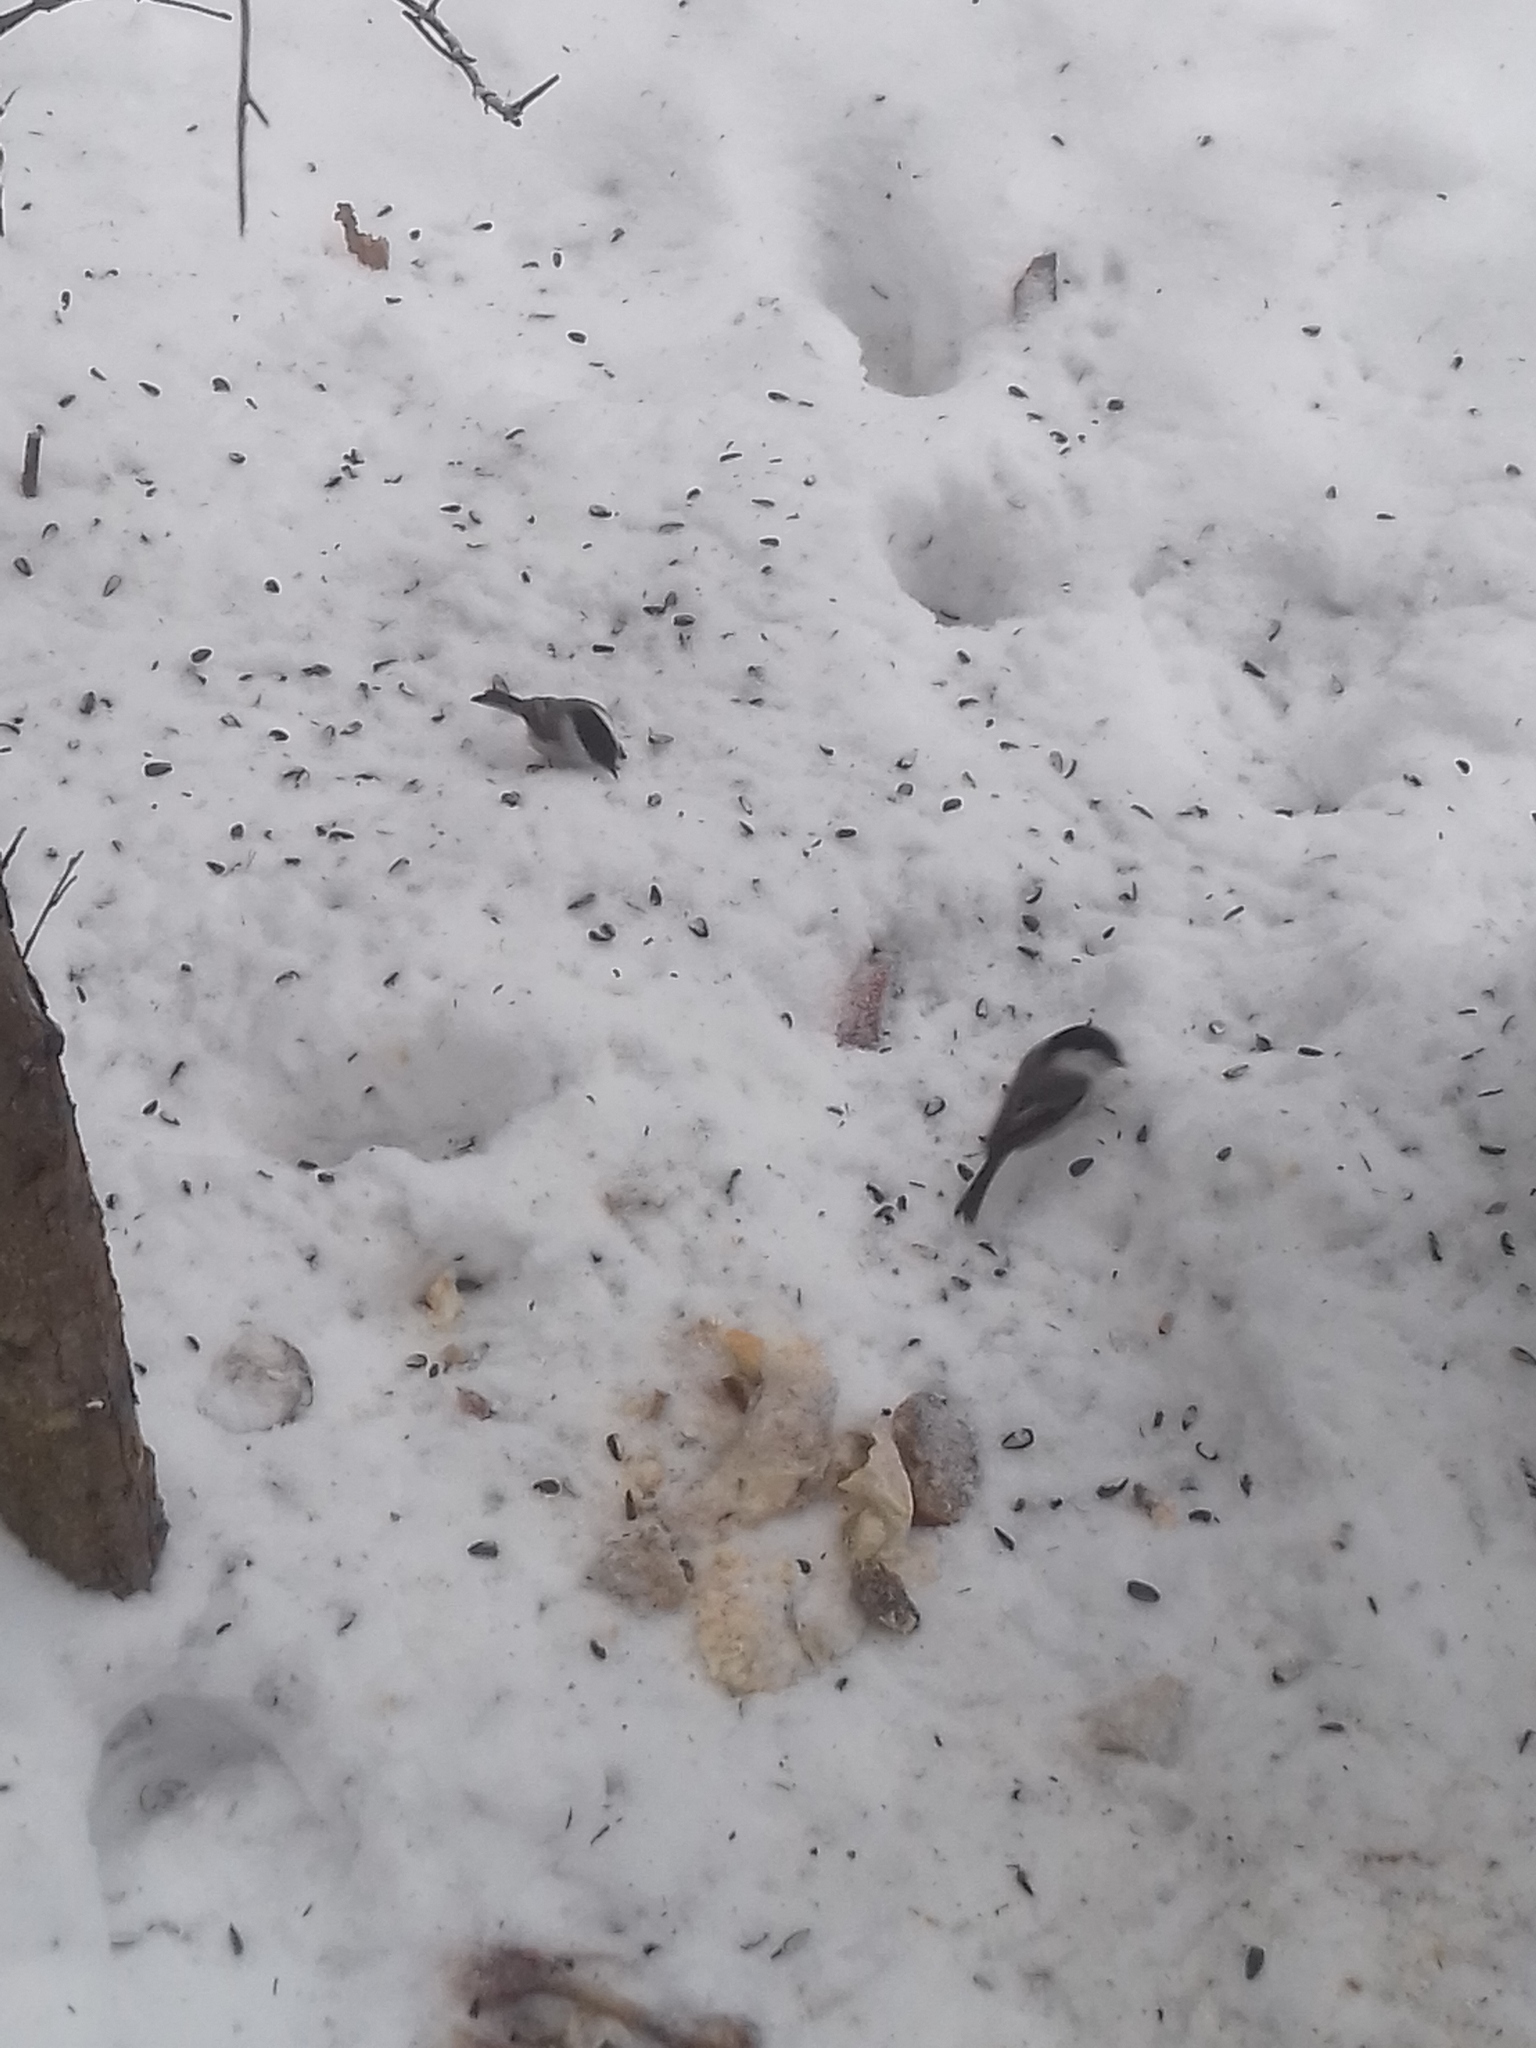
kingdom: Animalia
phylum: Chordata
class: Aves
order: Passeriformes
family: Paridae
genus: Poecile
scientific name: Poecile montanus
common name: Willow tit
